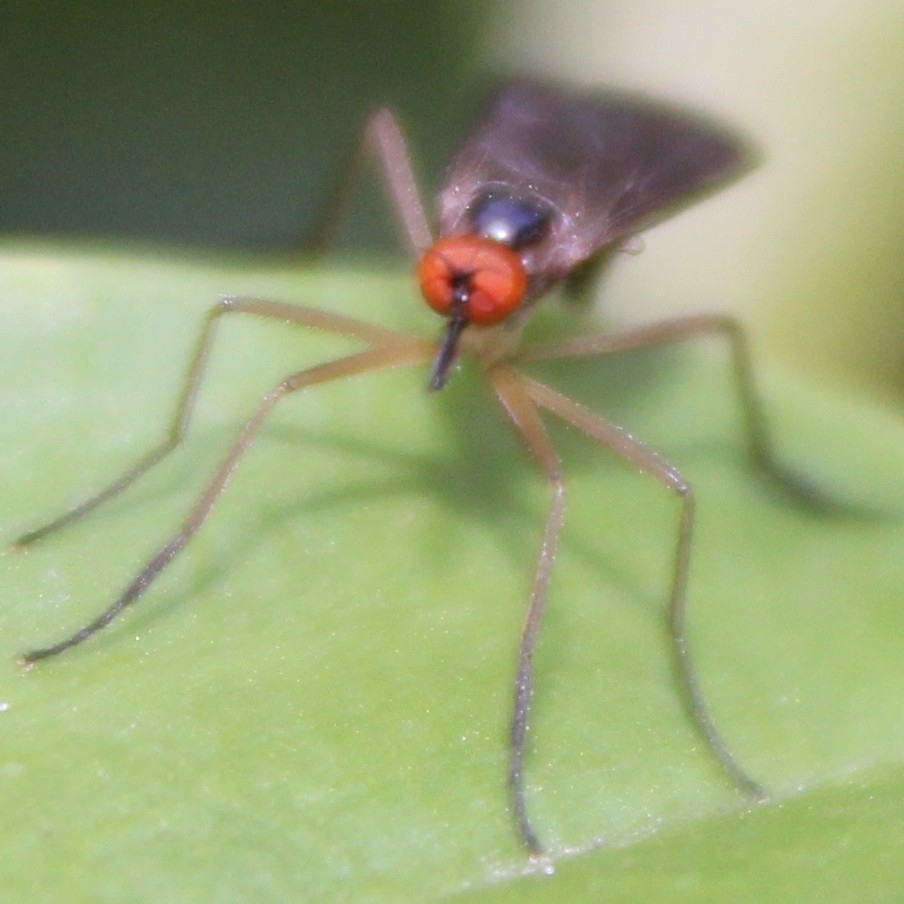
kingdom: Animalia
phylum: Arthropoda
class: Insecta
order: Diptera
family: Empididae
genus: Rhamphomyia
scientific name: Rhamphomyia longicauda
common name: Long-tailed dance fly
